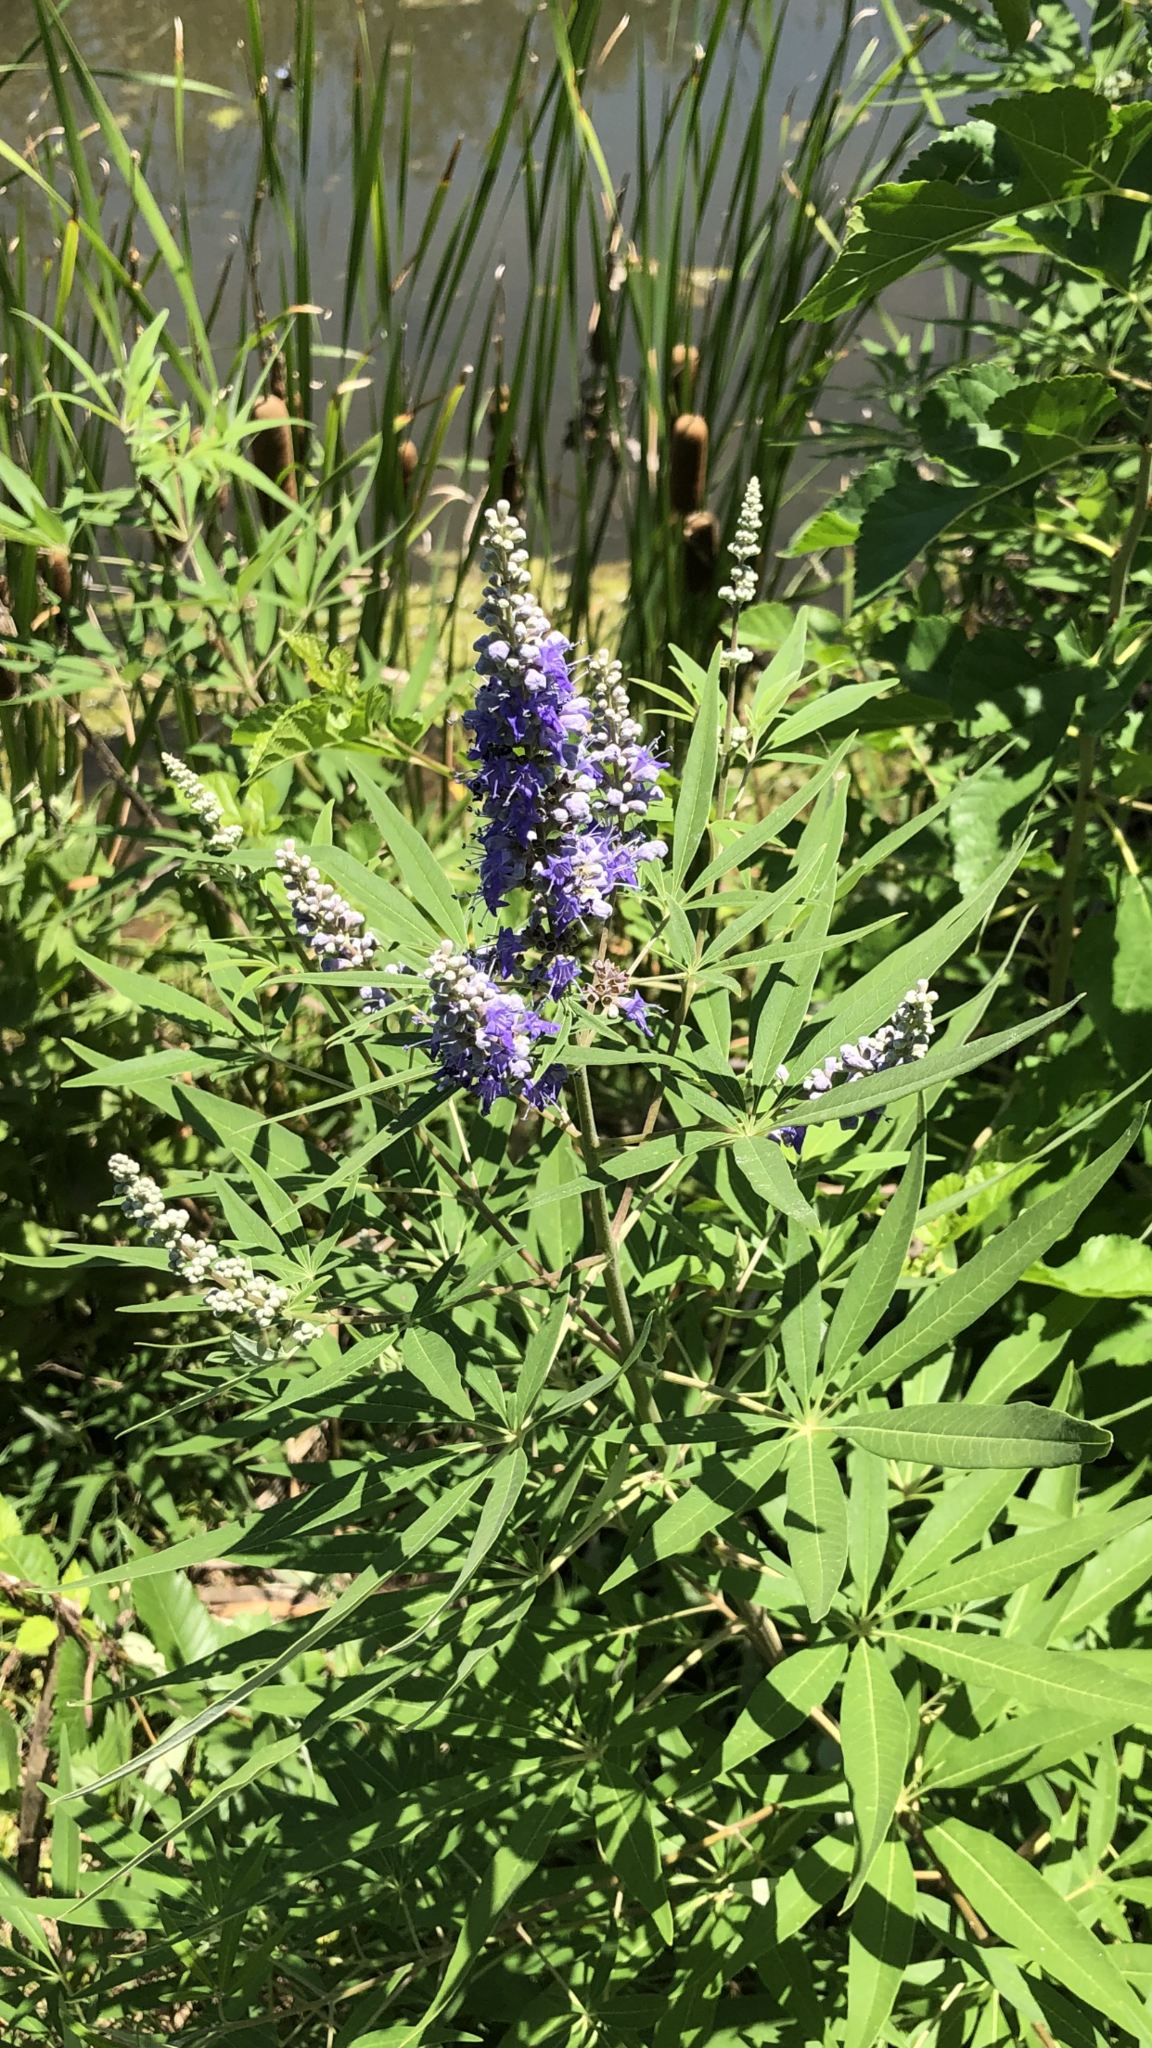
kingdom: Plantae
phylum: Tracheophyta
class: Magnoliopsida
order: Lamiales
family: Lamiaceae
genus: Vitex
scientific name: Vitex agnus-castus
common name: Chasteberry
